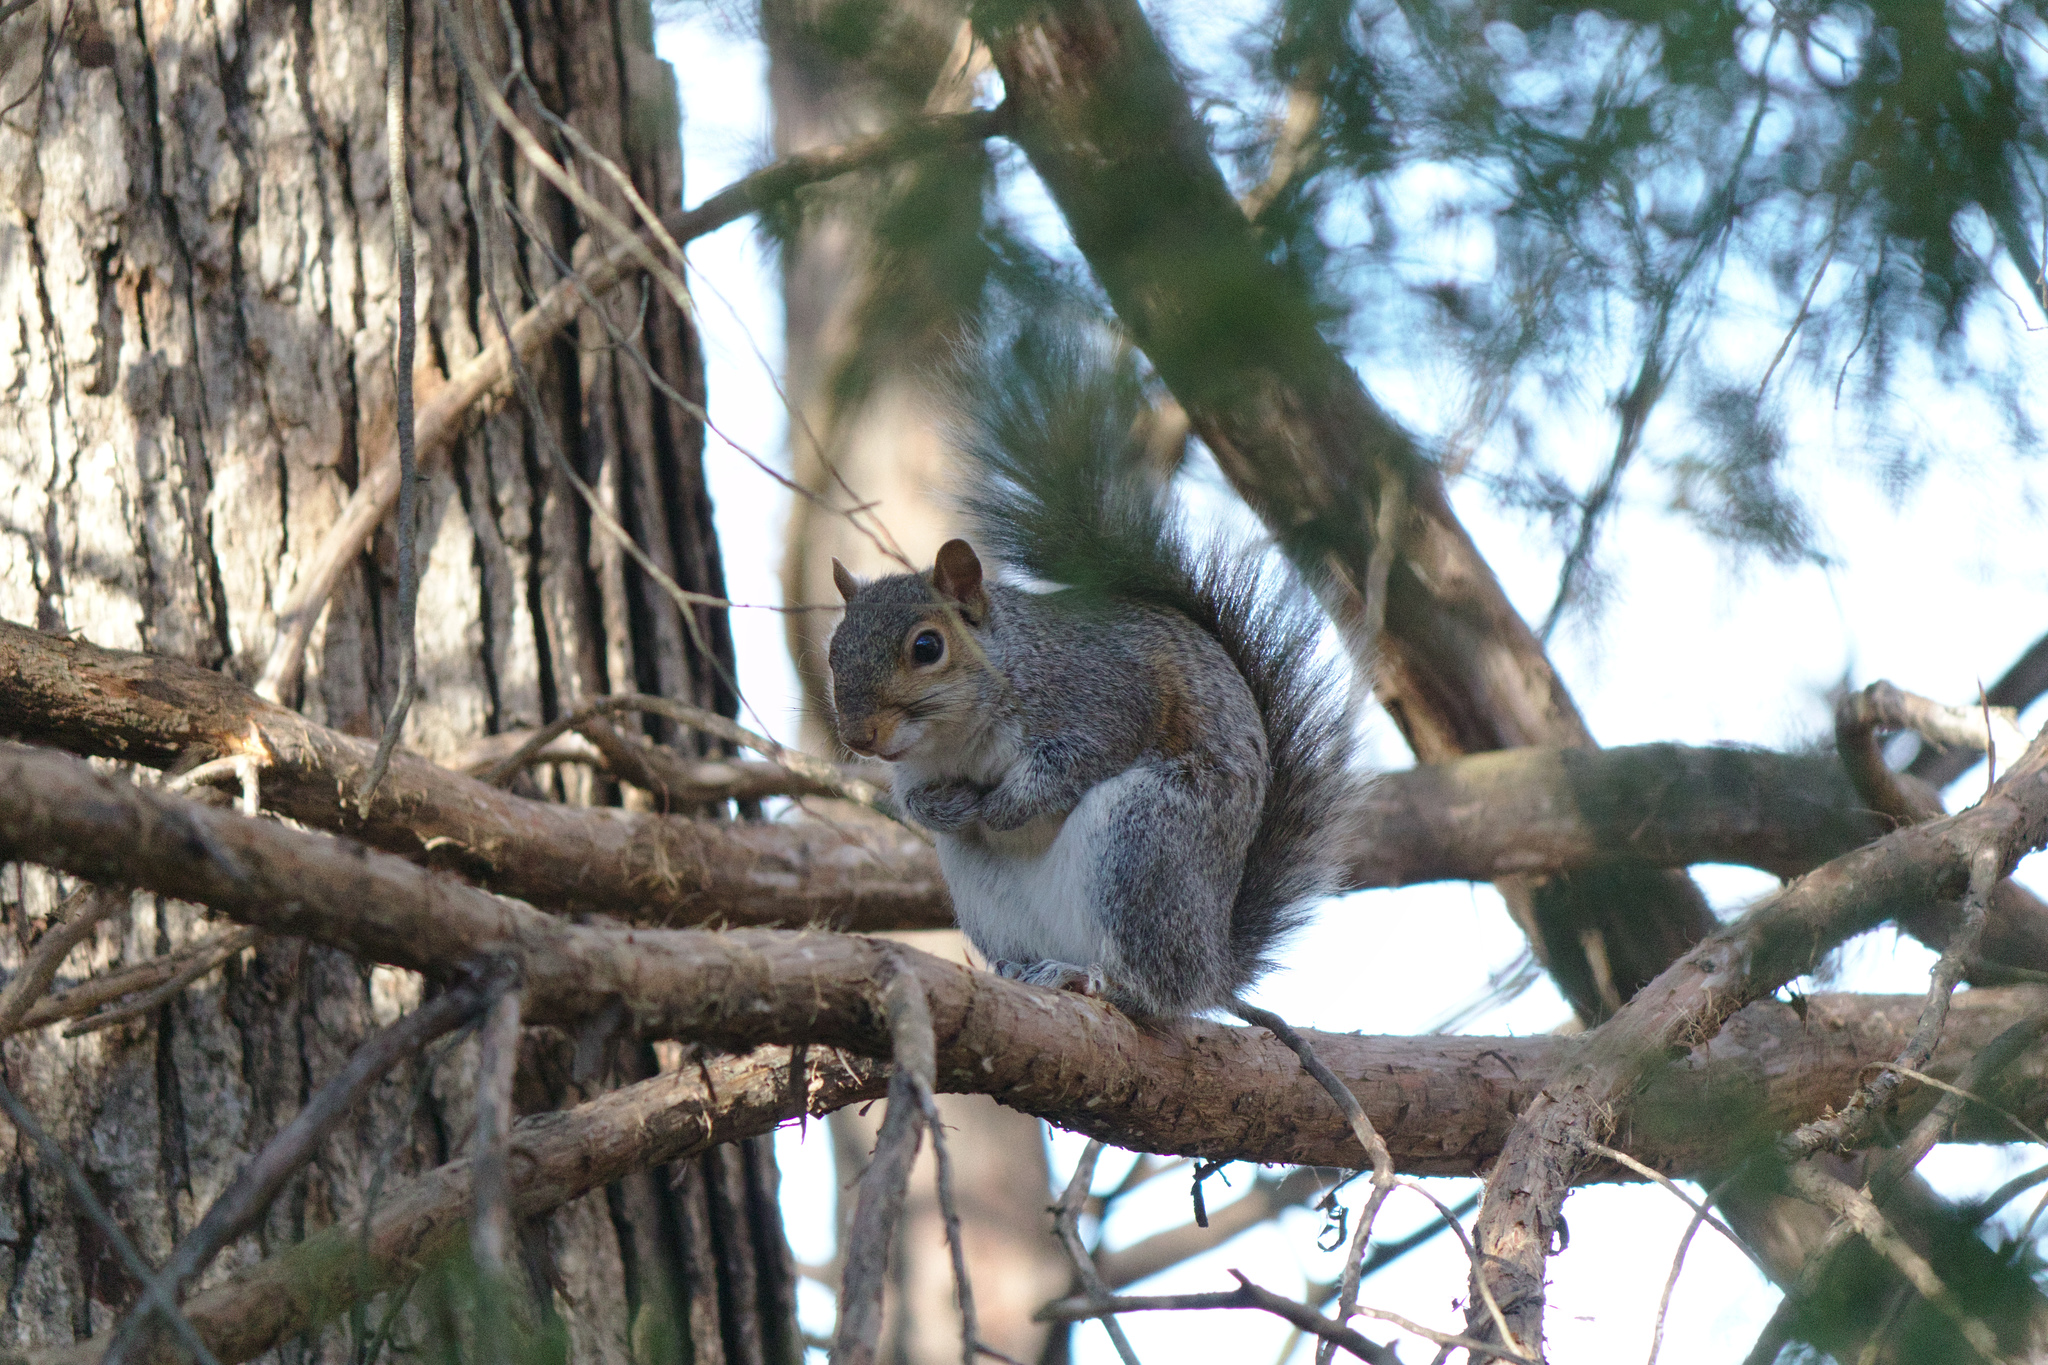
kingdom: Animalia
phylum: Chordata
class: Mammalia
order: Rodentia
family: Sciuridae
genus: Sciurus
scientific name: Sciurus carolinensis
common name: Eastern gray squirrel
